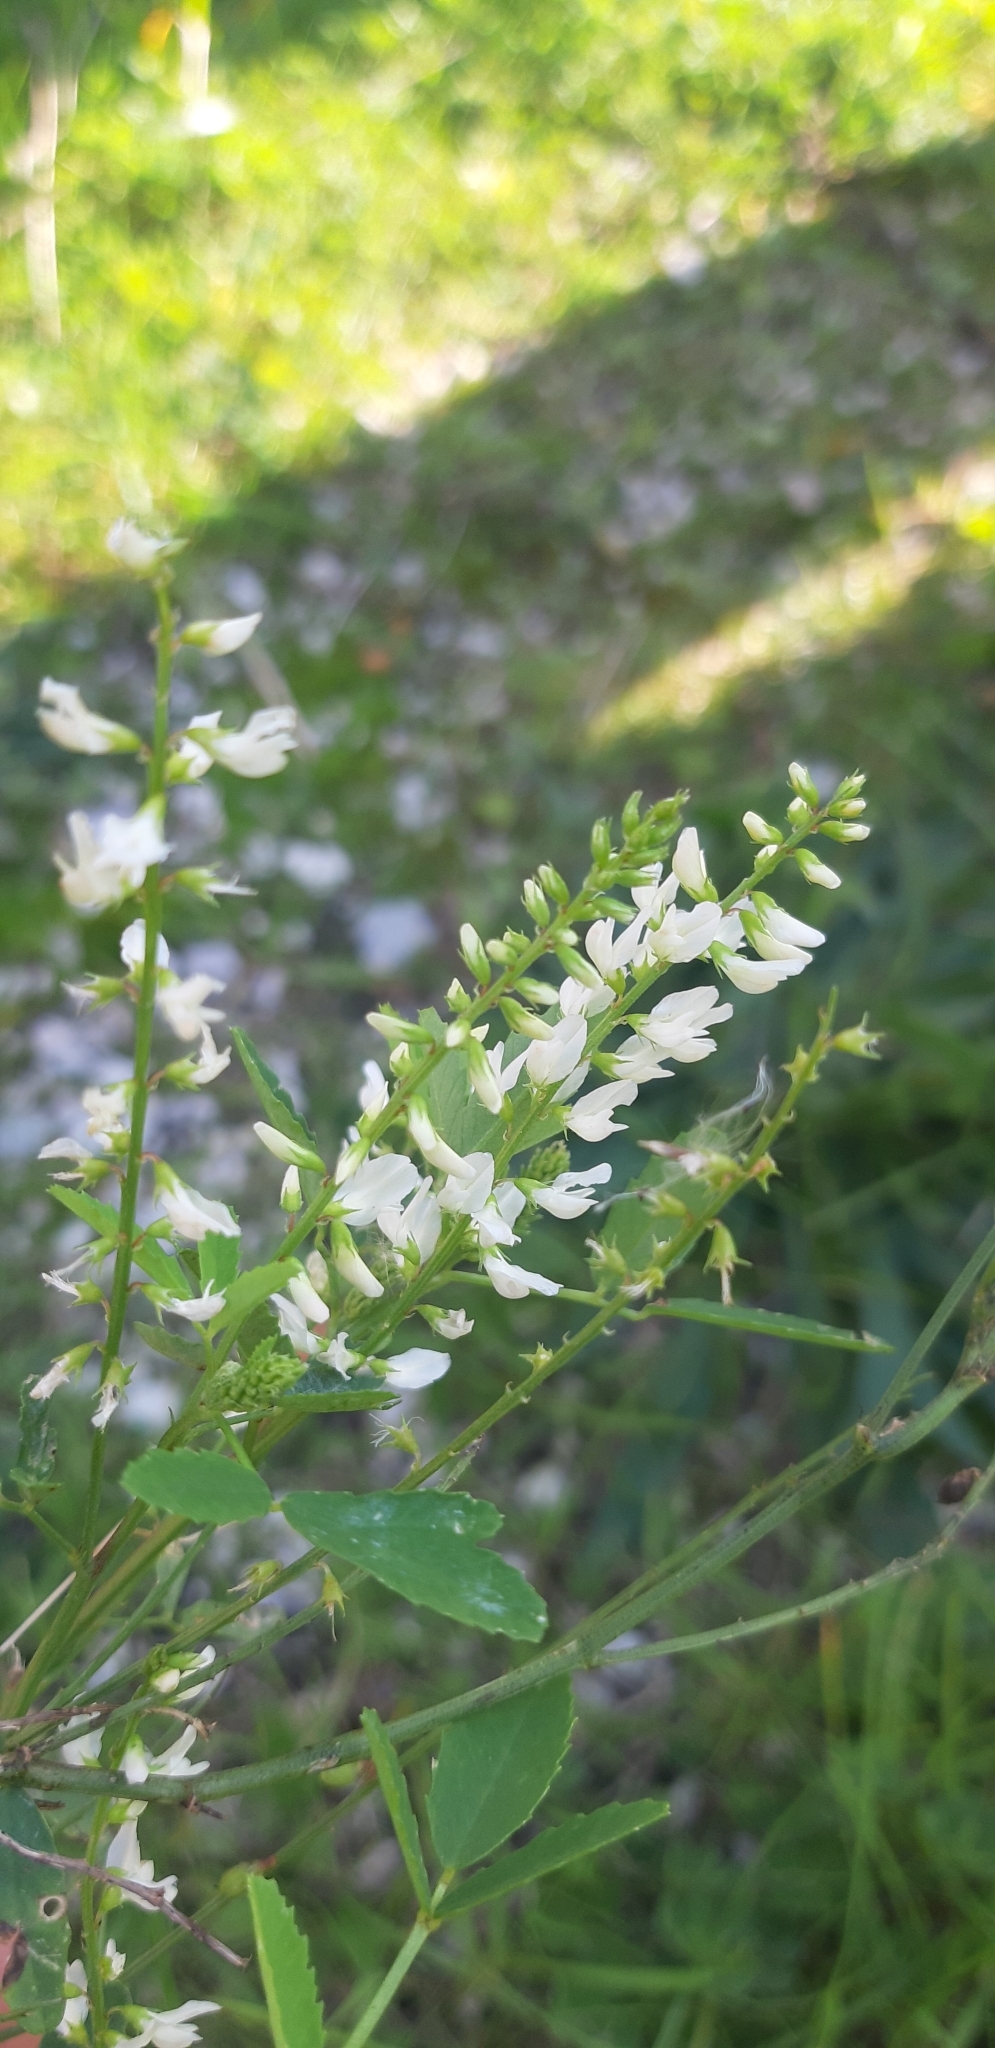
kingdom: Plantae
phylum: Tracheophyta
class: Magnoliopsida
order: Fabales
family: Fabaceae
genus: Melilotus
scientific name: Melilotus albus
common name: White melilot
